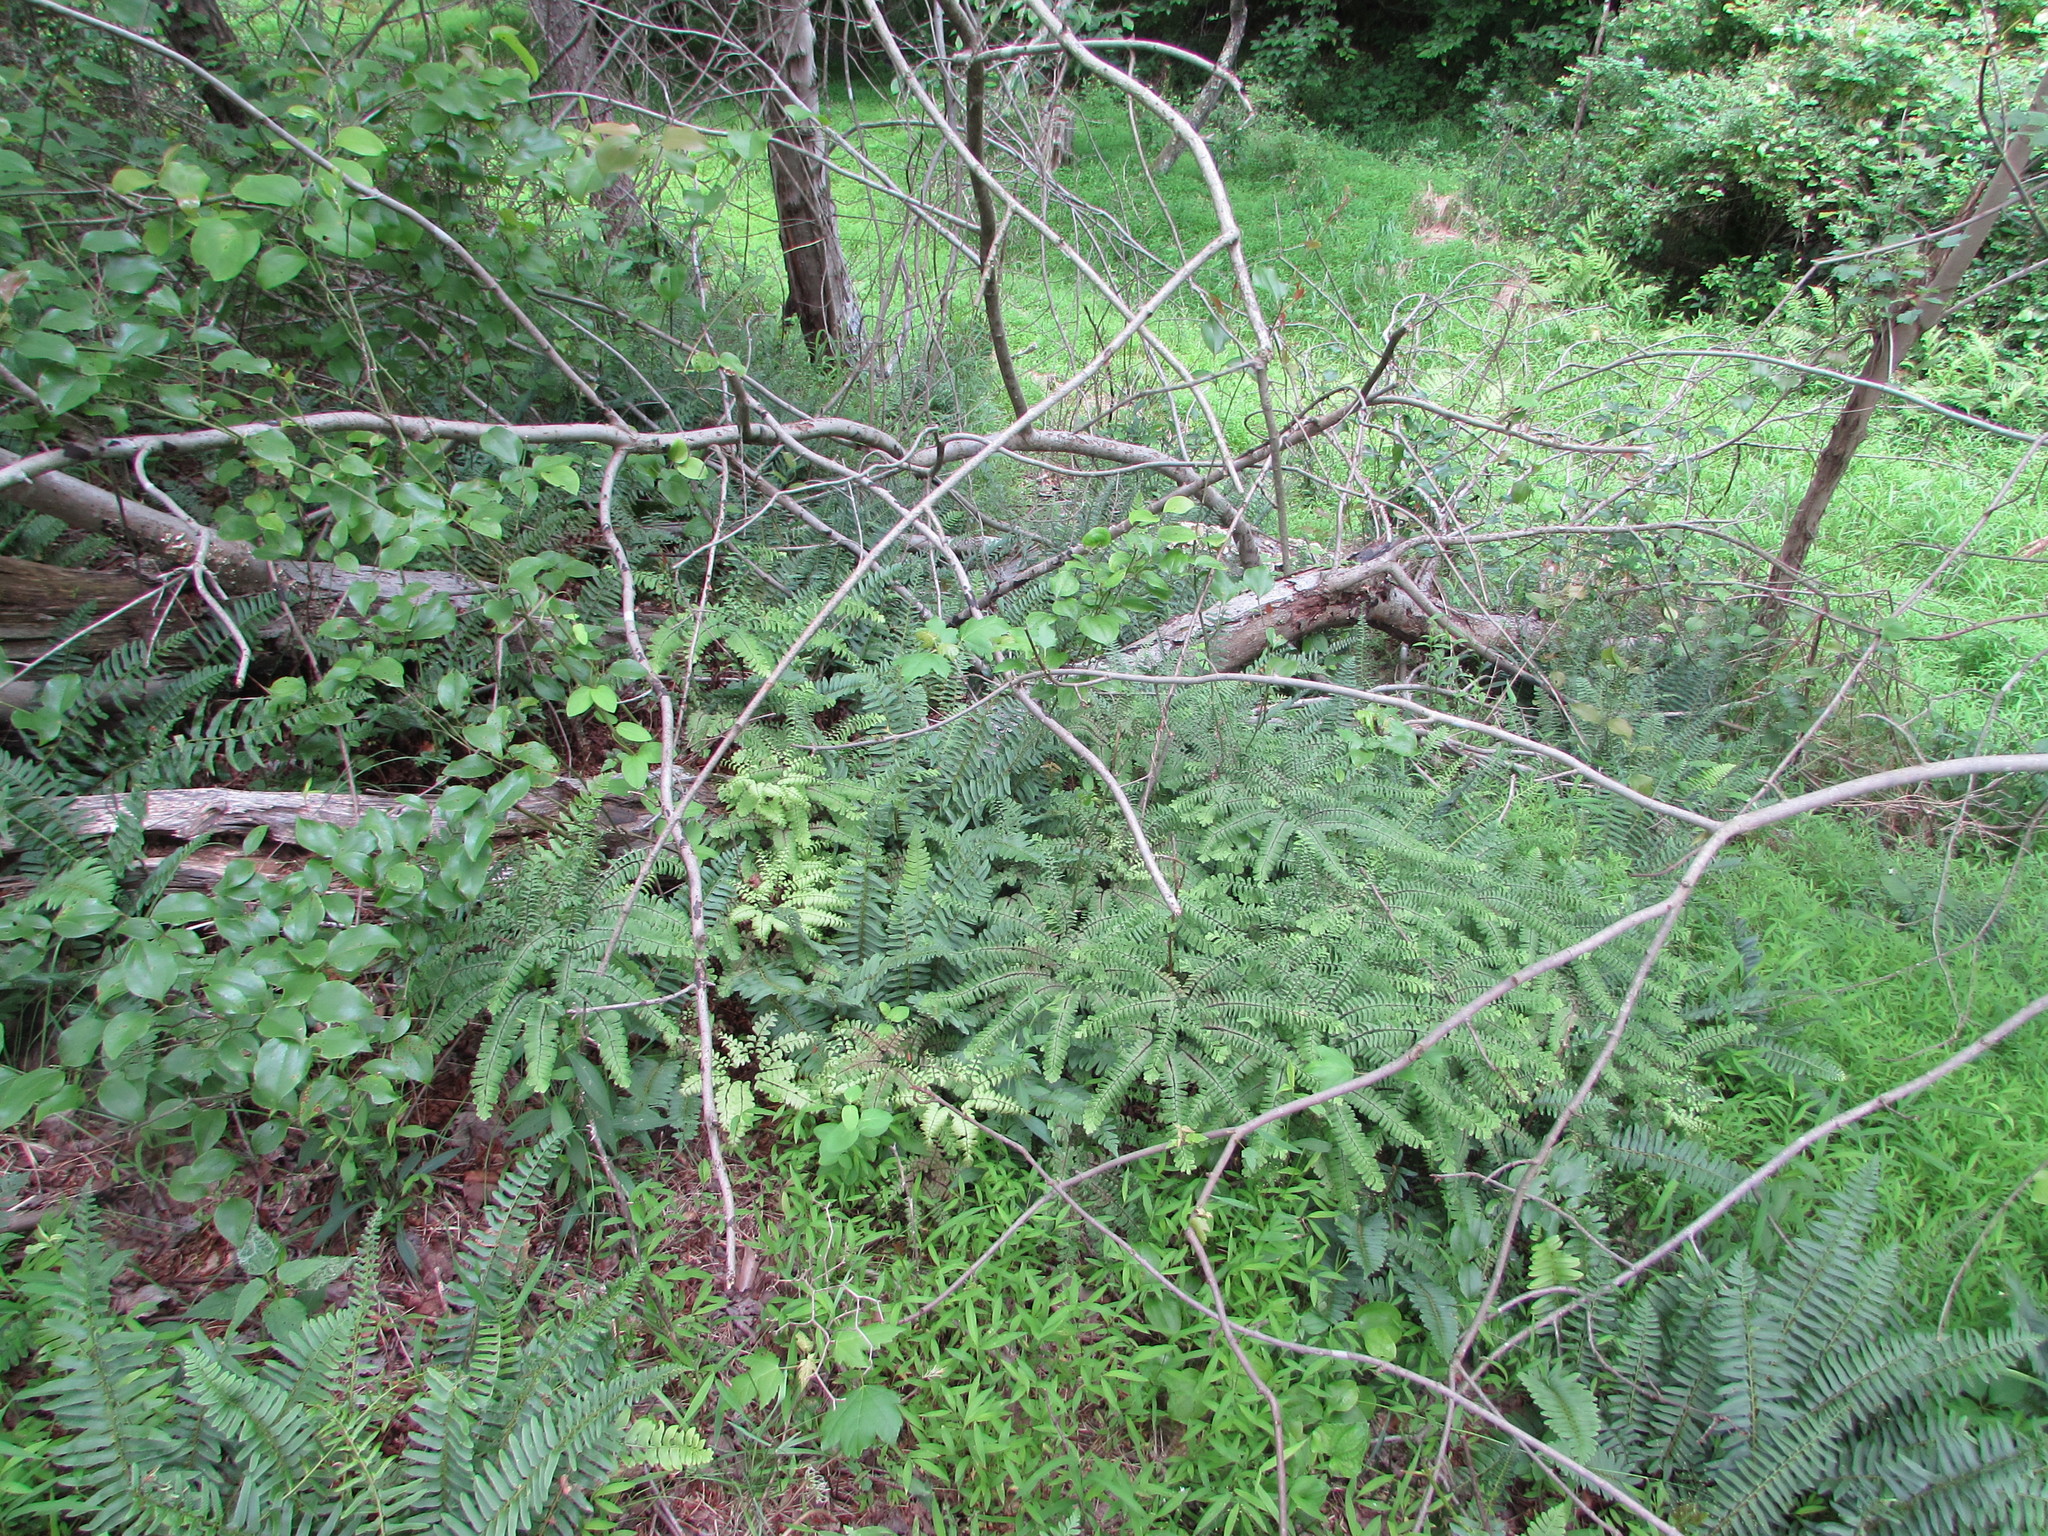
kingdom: Plantae
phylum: Tracheophyta
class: Polypodiopsida
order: Polypodiales
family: Pteridaceae
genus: Adiantum
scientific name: Adiantum pedatum
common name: Five-finger fern
